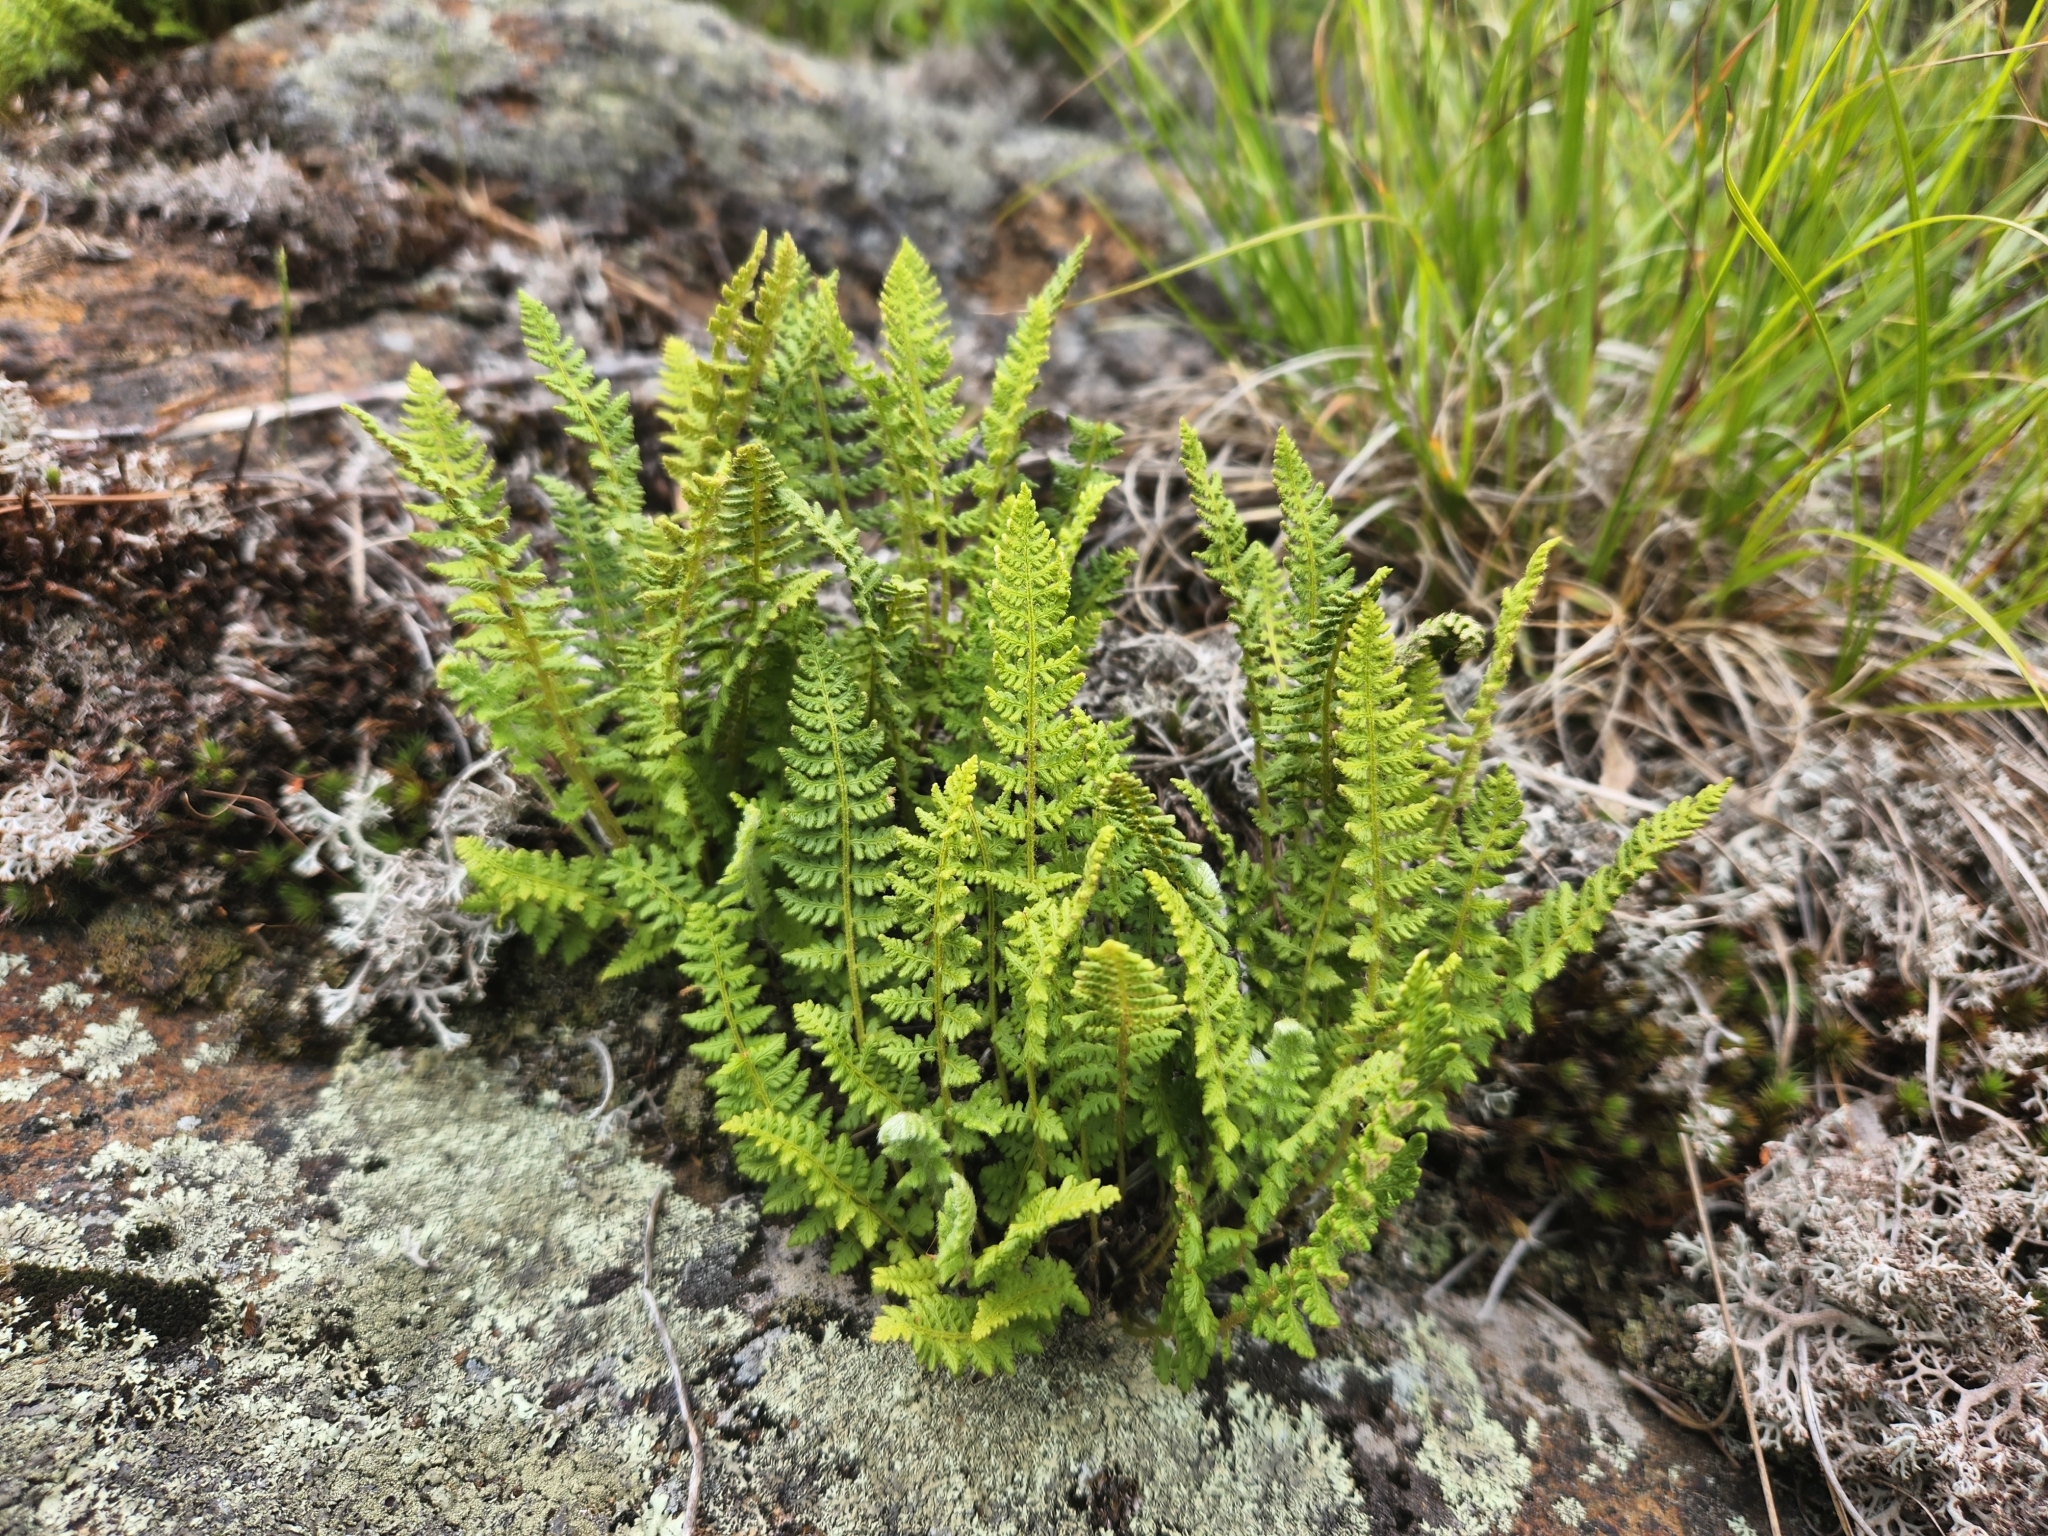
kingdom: Plantae
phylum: Tracheophyta
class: Polypodiopsida
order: Polypodiales
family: Woodsiaceae
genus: Woodsia
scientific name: Woodsia ilvensis
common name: Fragrant woodsia
